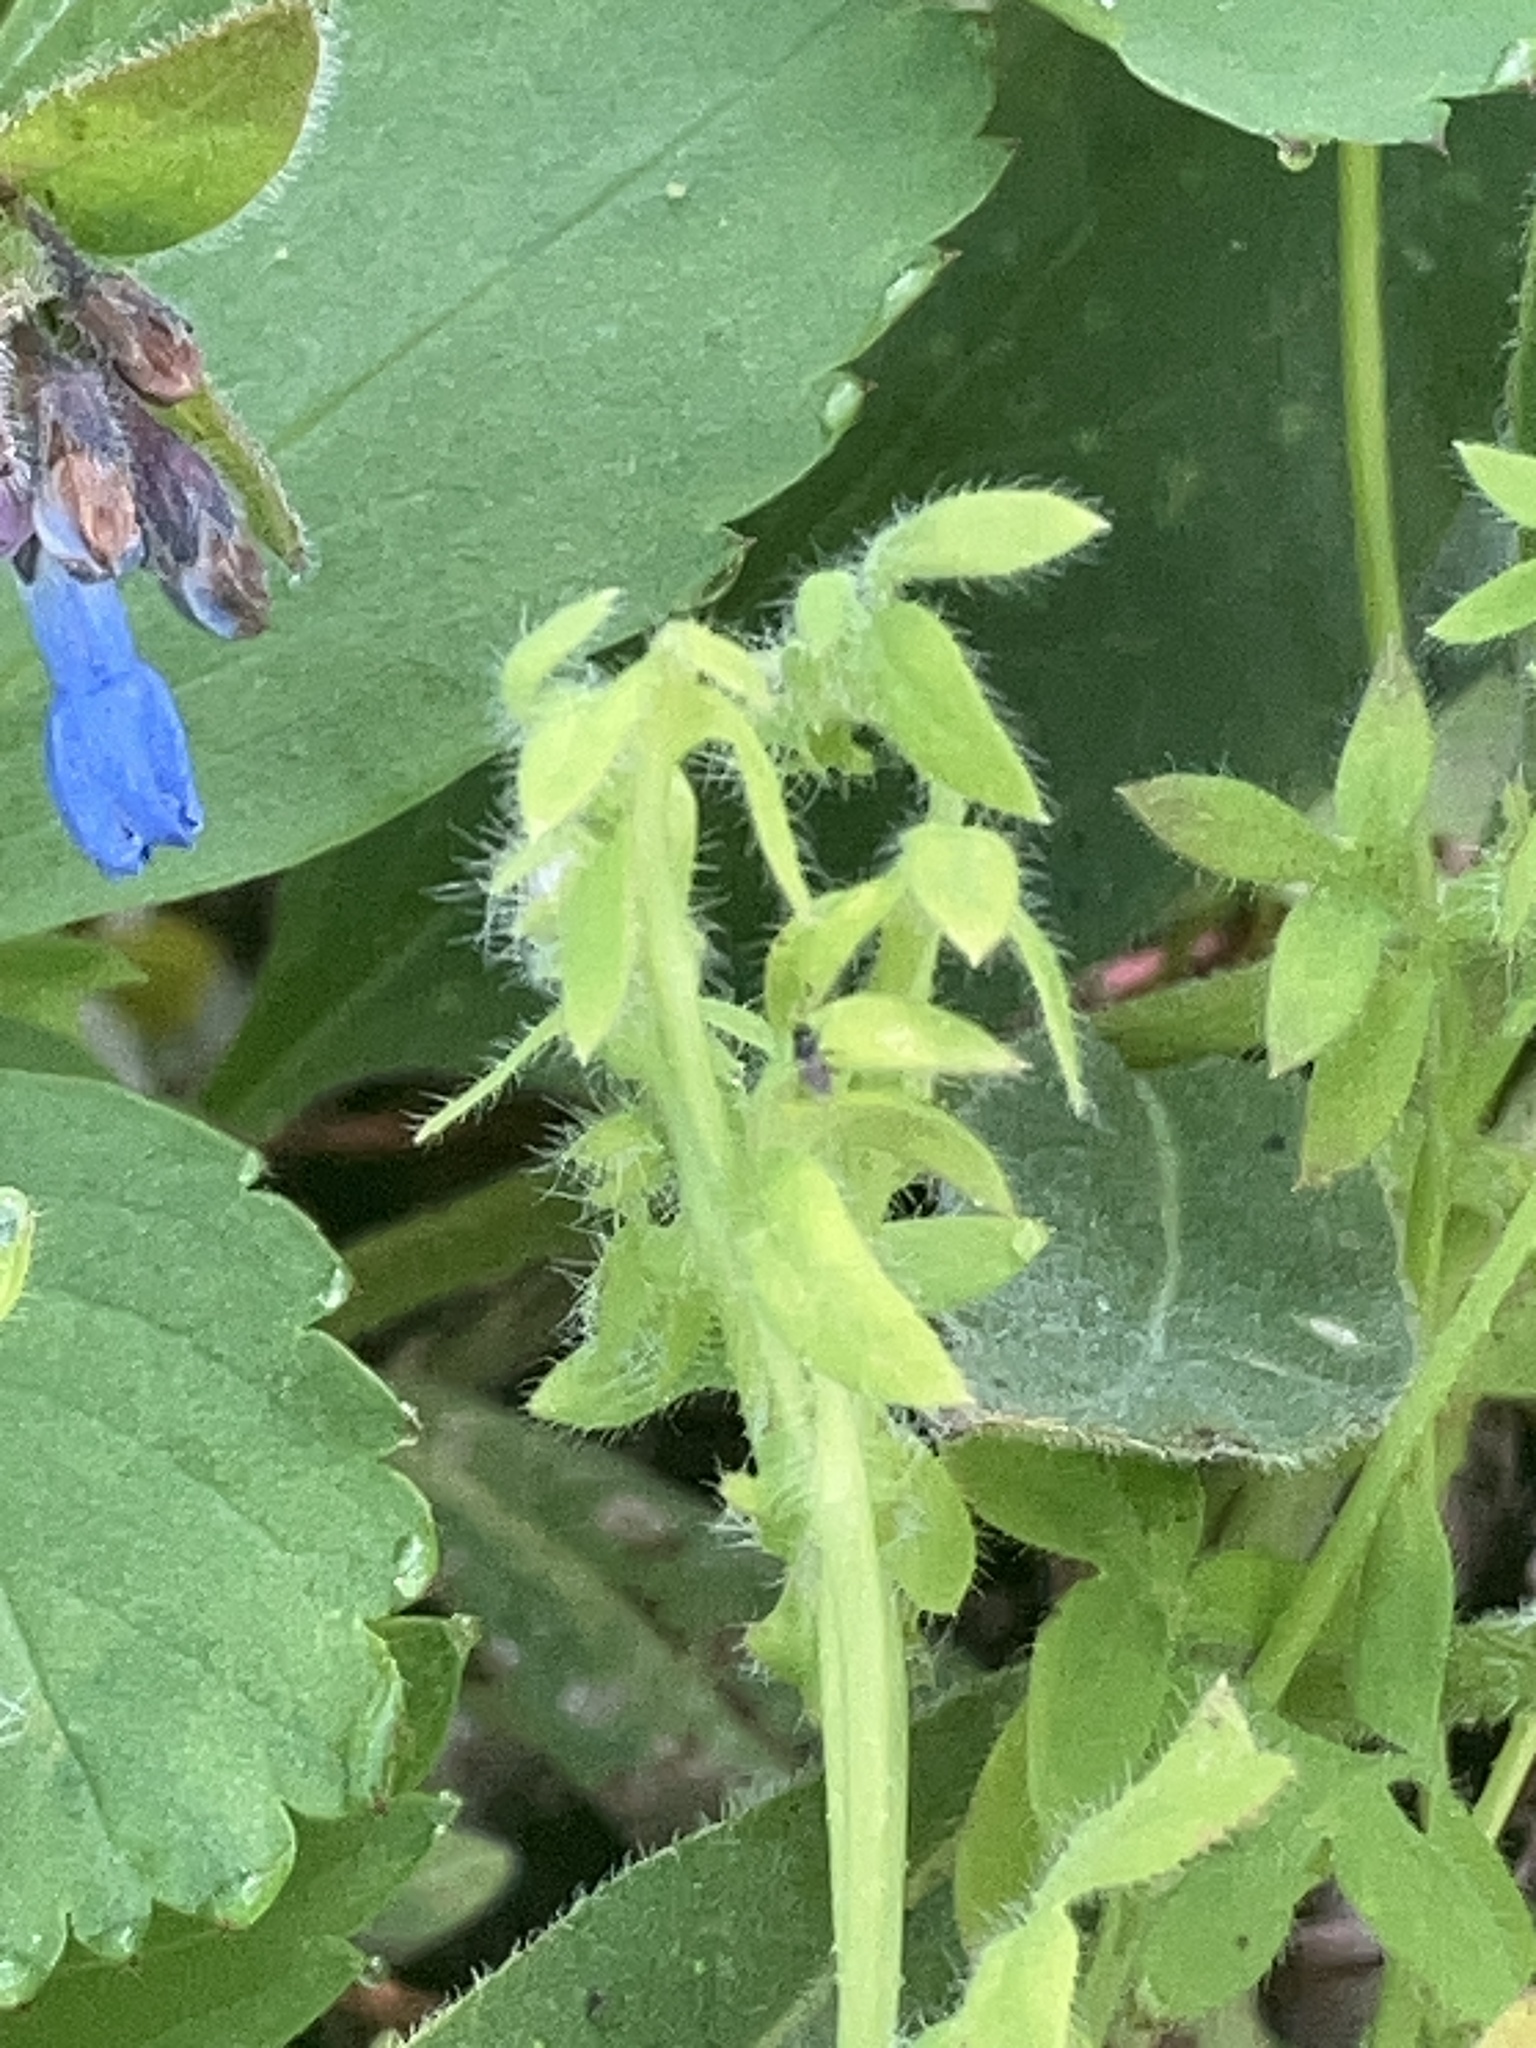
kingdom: Plantae
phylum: Tracheophyta
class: Magnoliopsida
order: Boraginales
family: Hydrophyllaceae
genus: Nemophila
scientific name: Nemophila breviflora
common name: Great basin baby-blue-eyes
